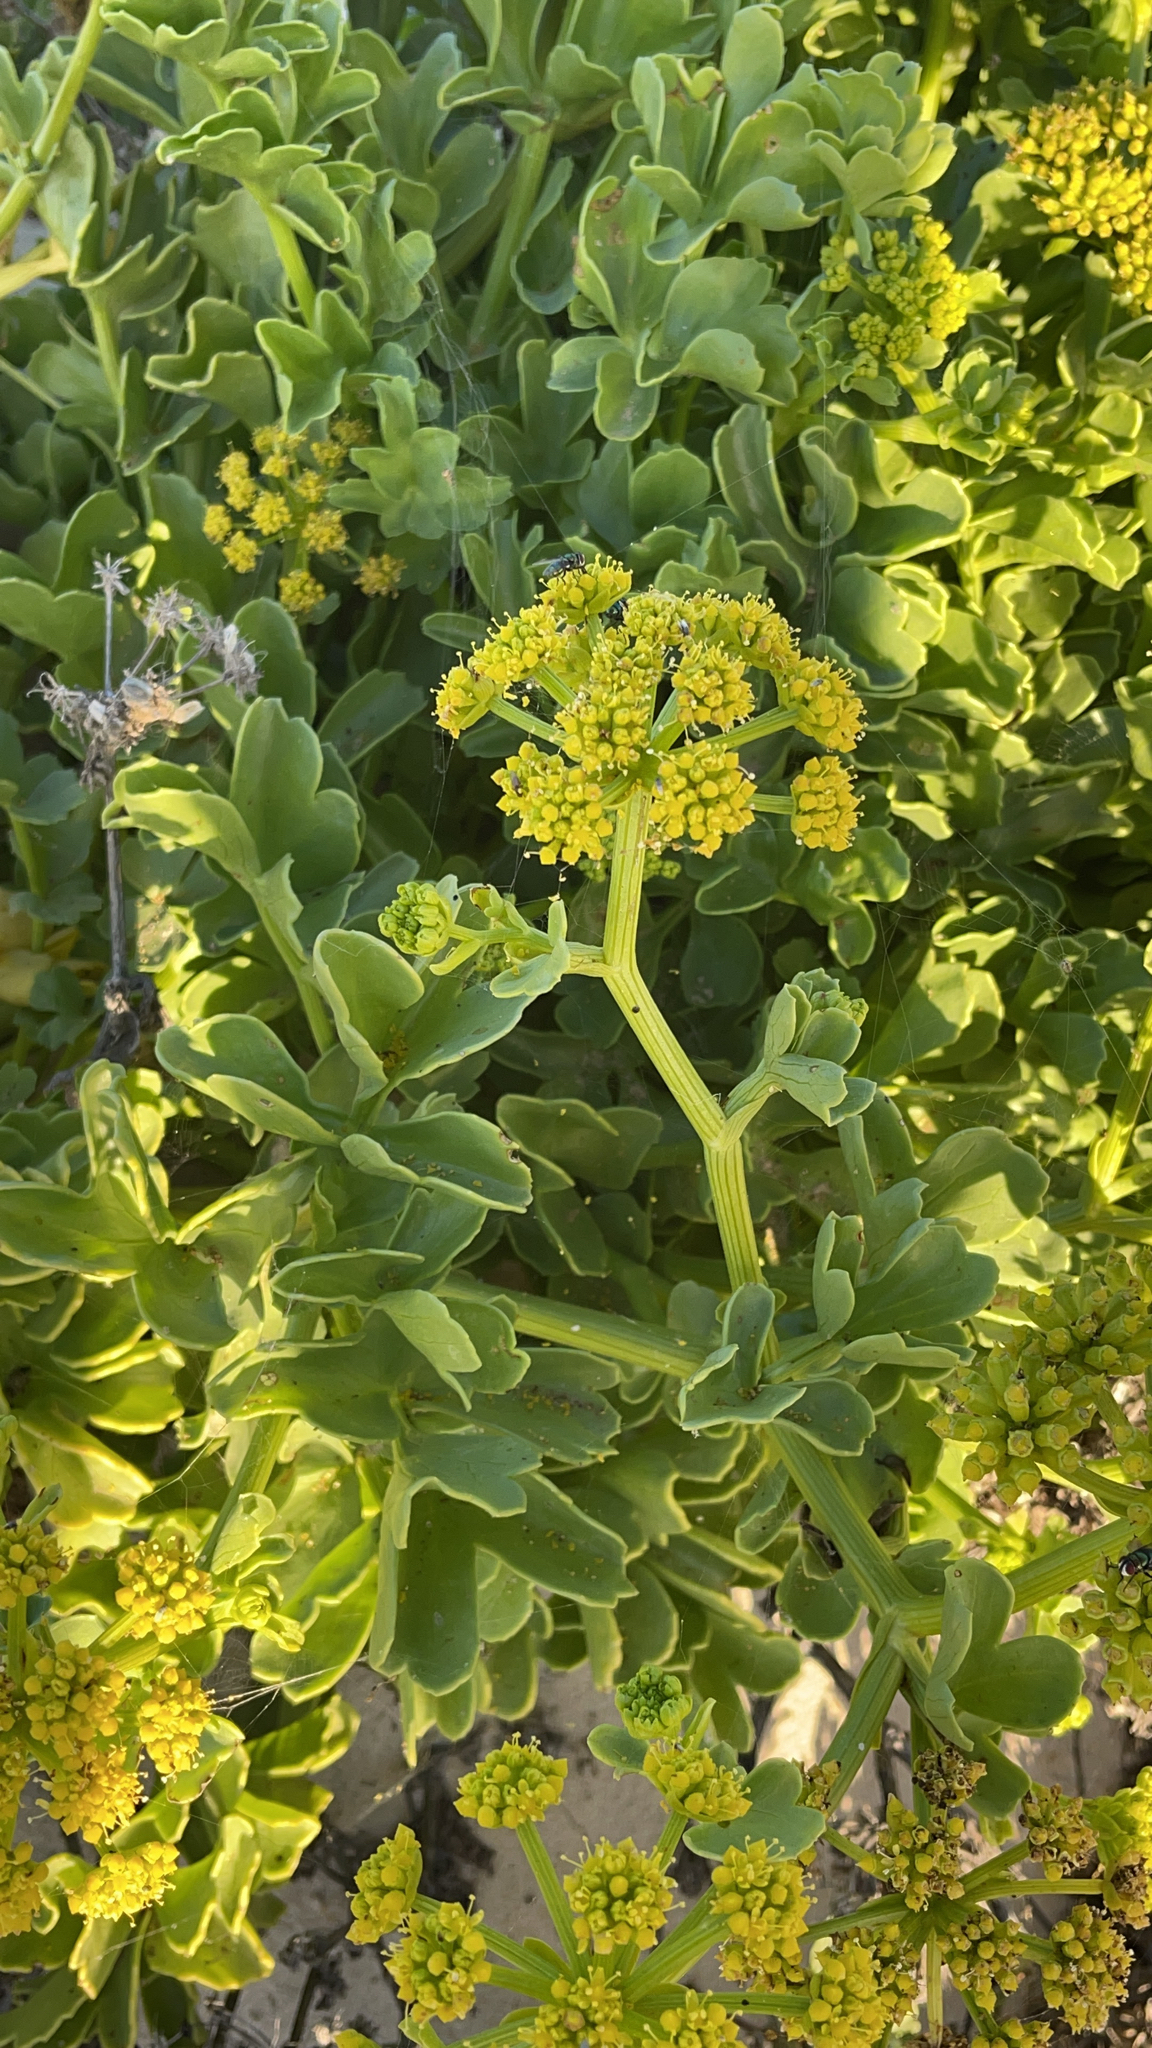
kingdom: Plantae
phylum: Tracheophyta
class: Magnoliopsida
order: Apiales
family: Apiaceae
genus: Astydamia
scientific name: Astydamia latifolia
